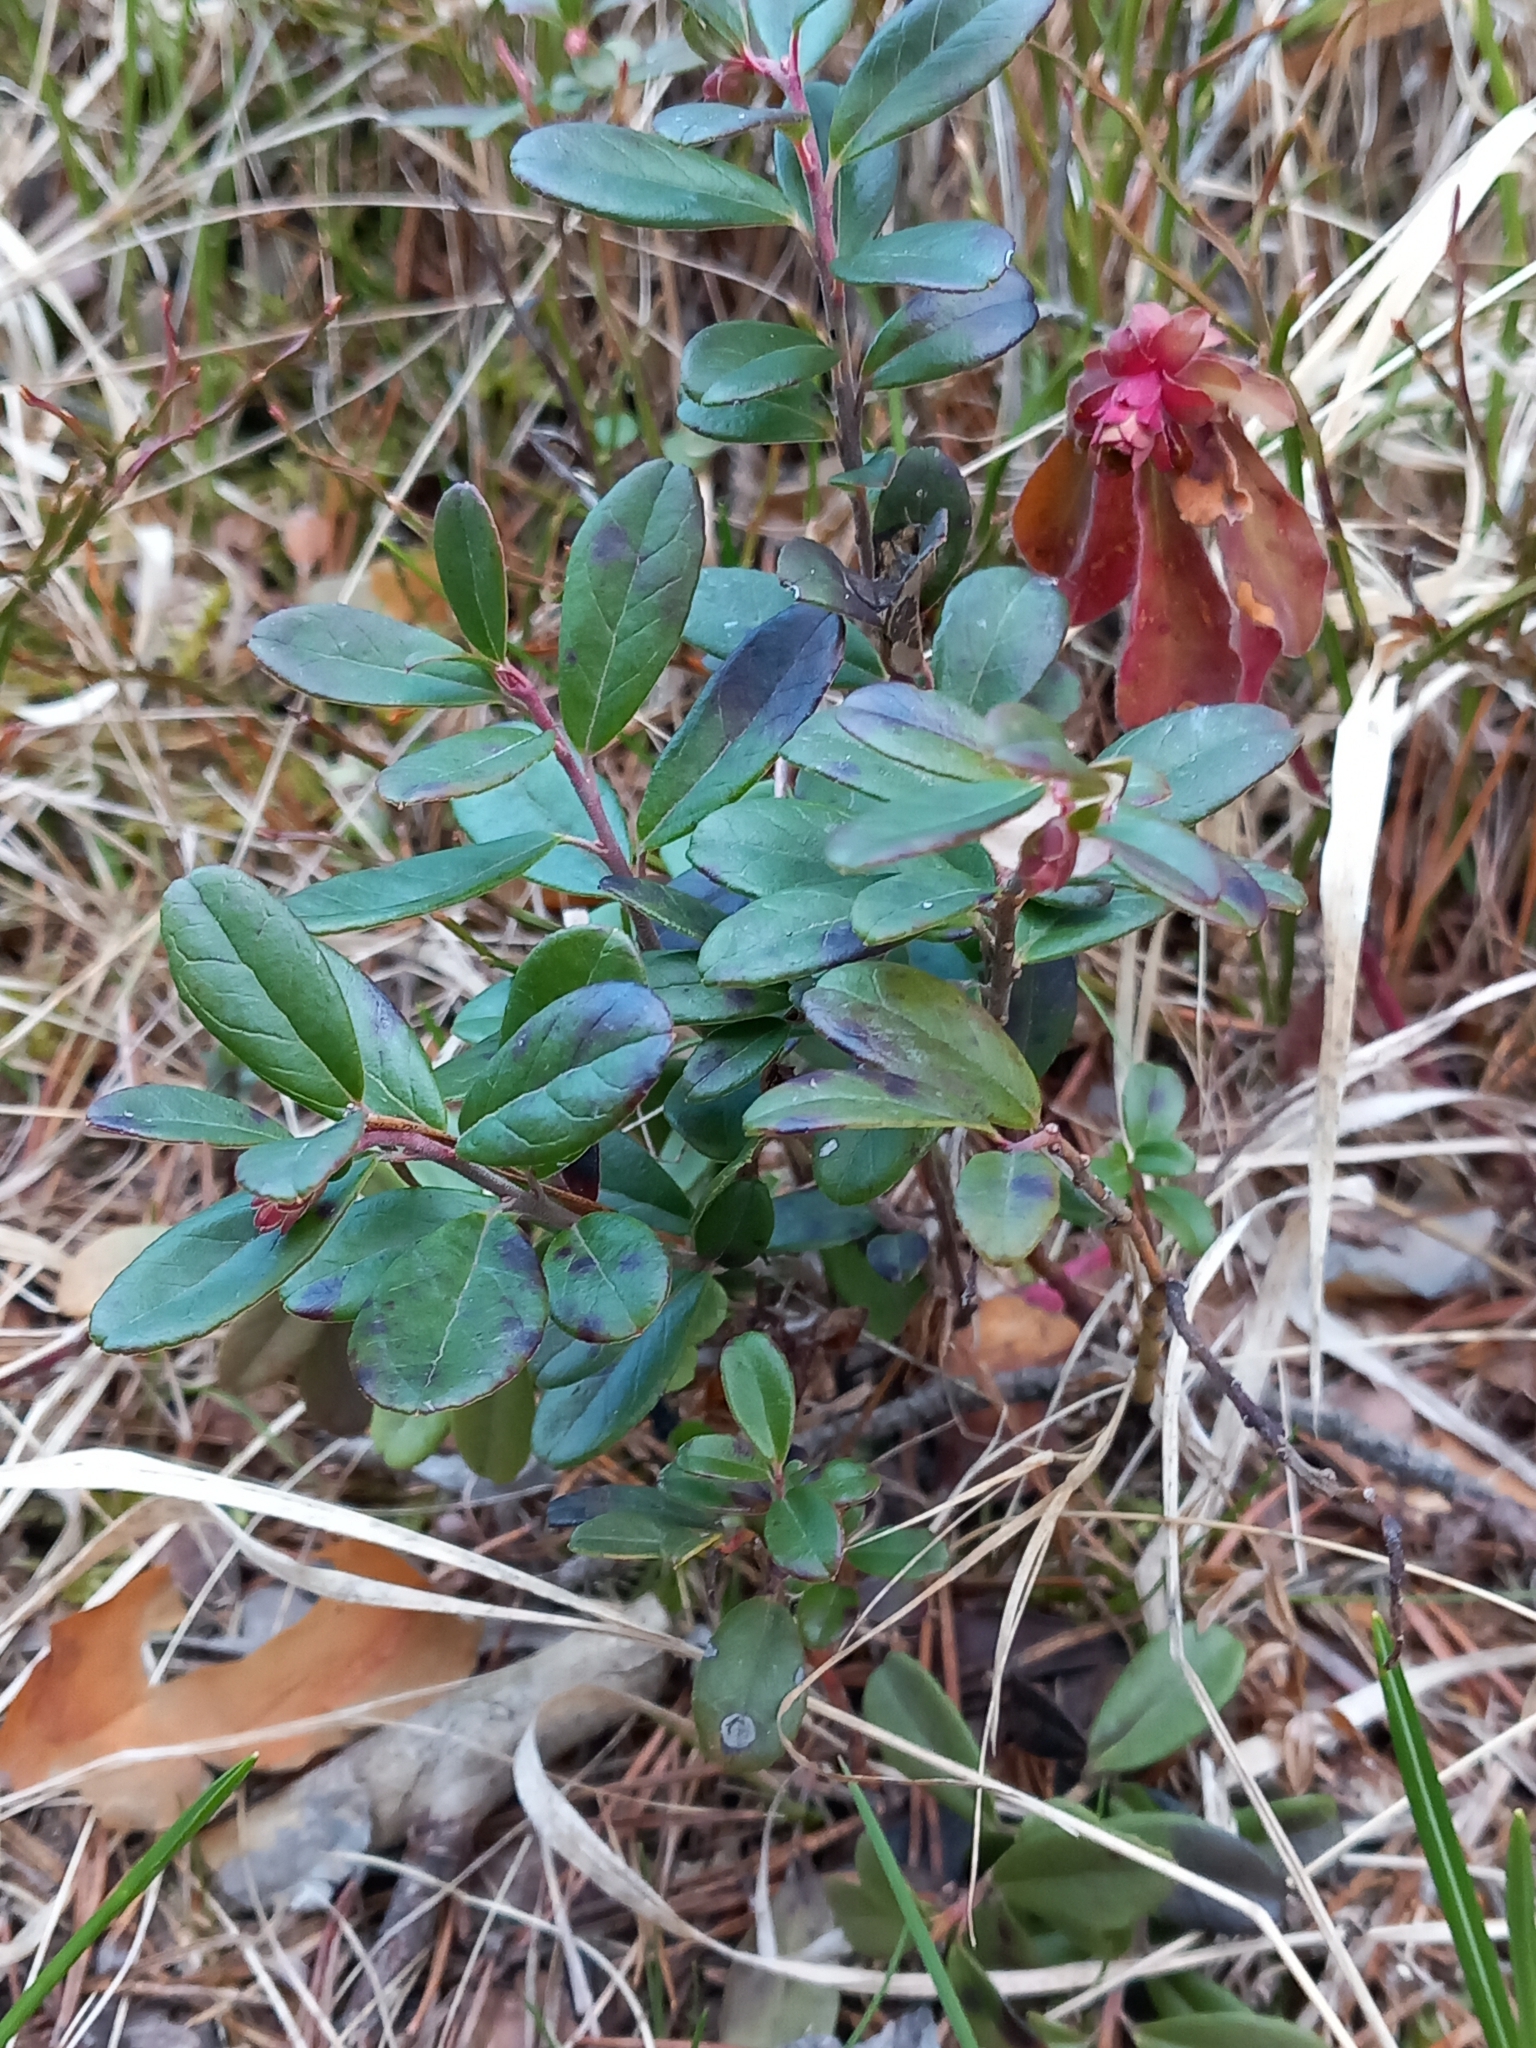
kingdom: Plantae
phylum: Tracheophyta
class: Magnoliopsida
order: Ericales
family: Ericaceae
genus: Vaccinium
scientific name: Vaccinium vitis-idaea
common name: Cowberry
